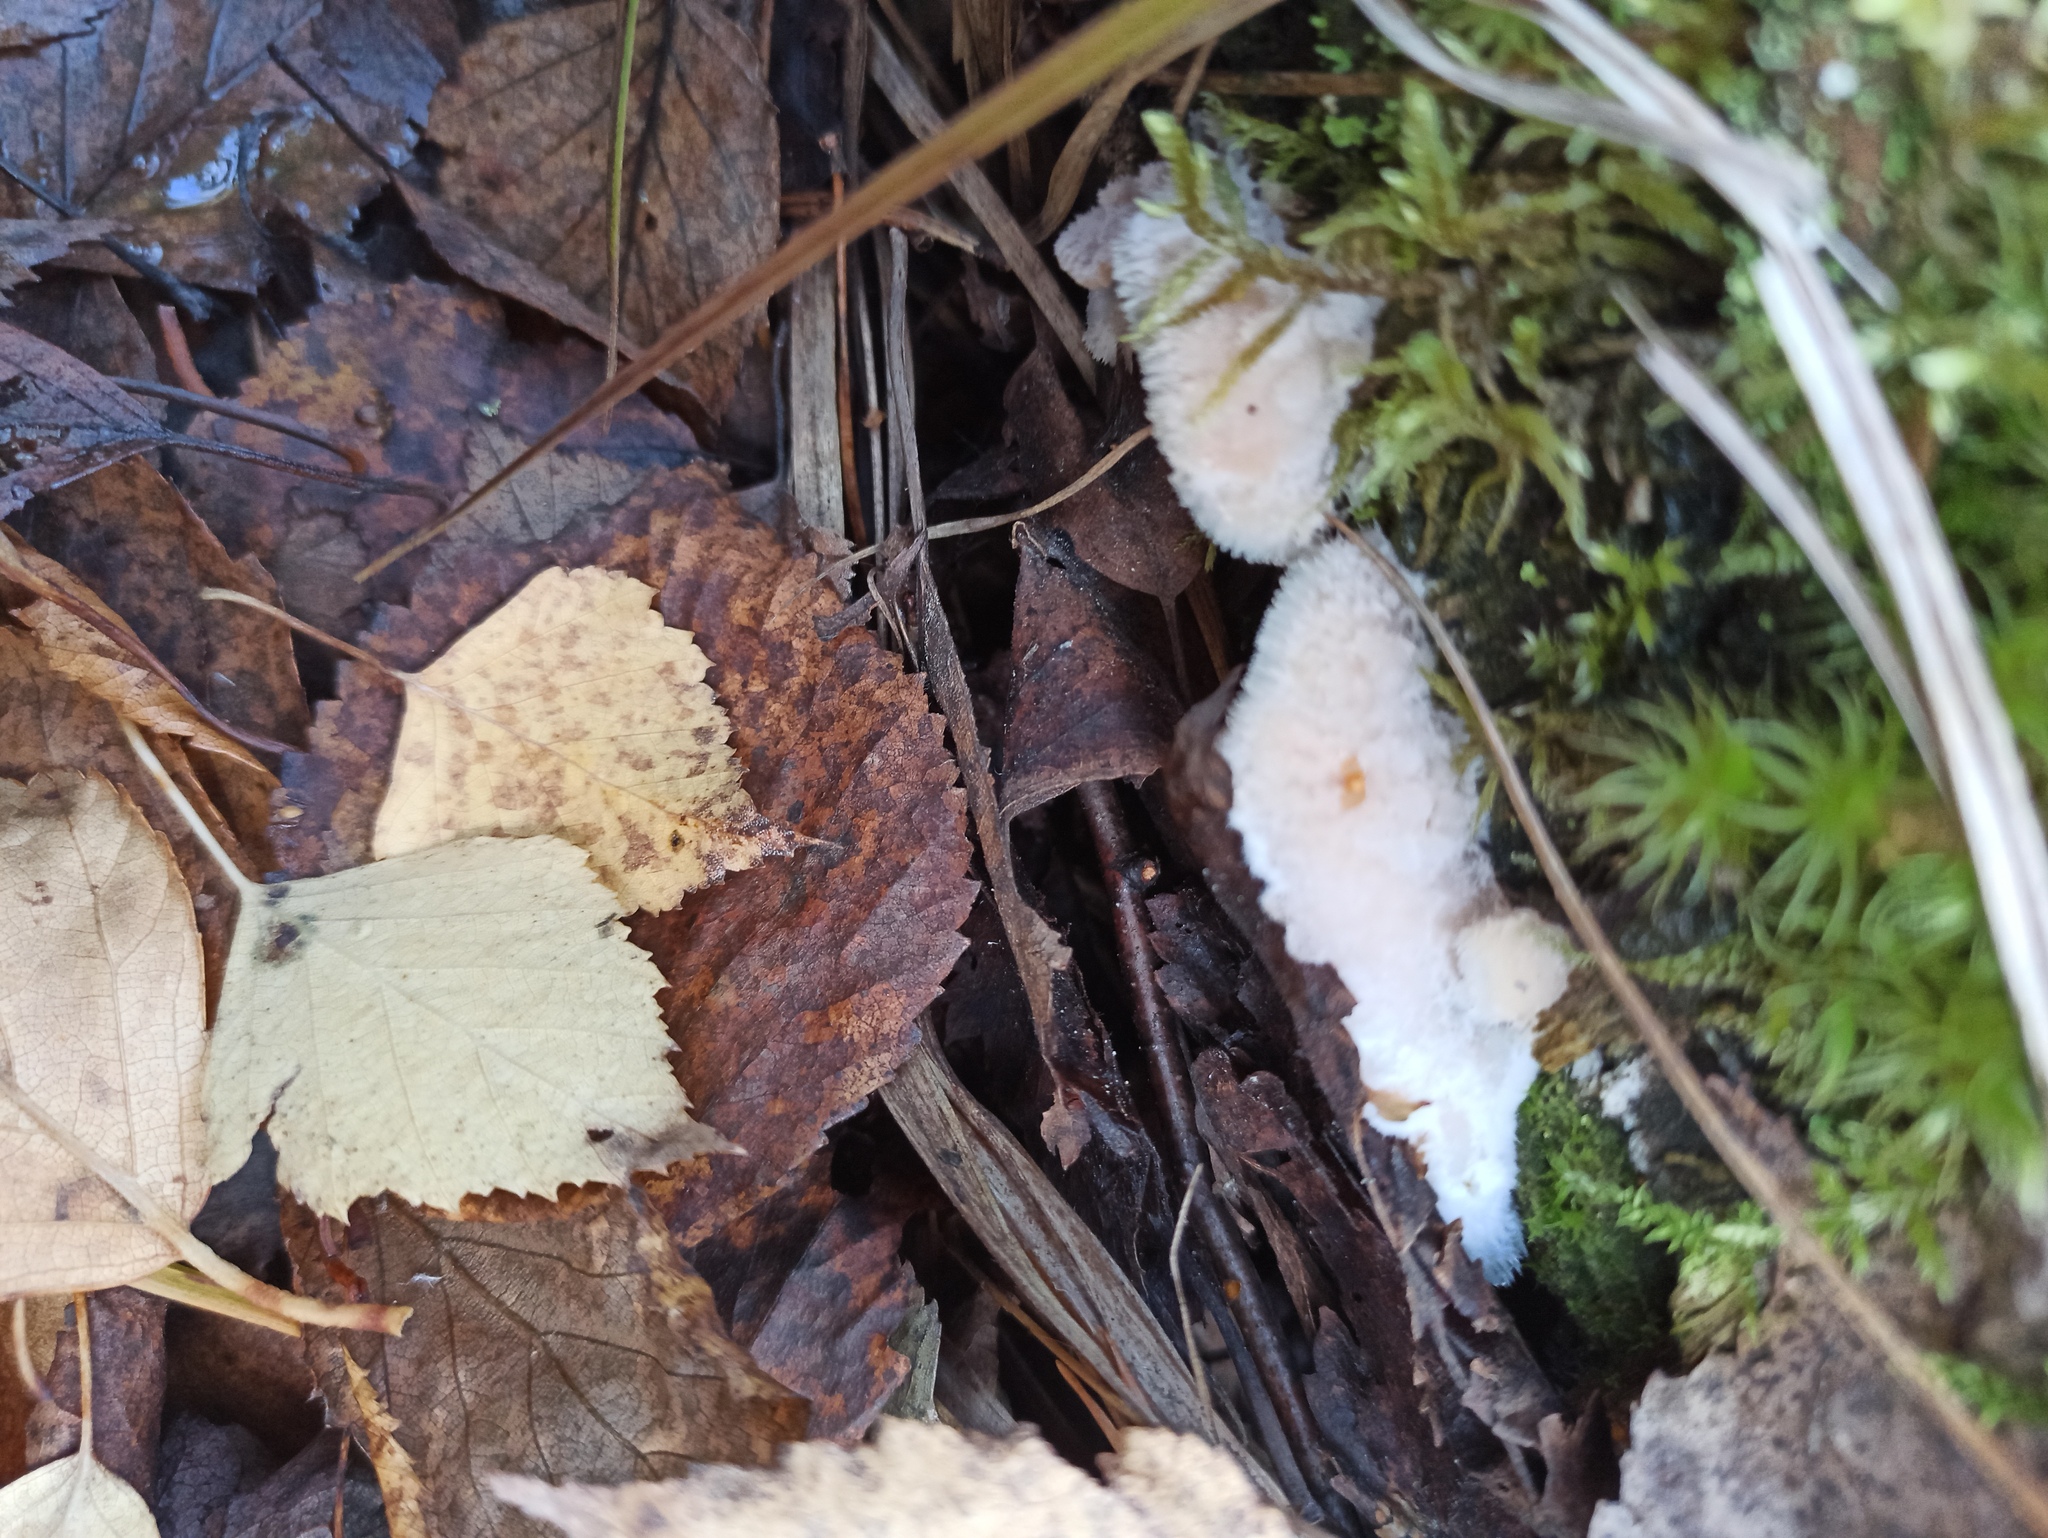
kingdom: Fungi
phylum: Basidiomycota
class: Agaricomycetes
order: Polyporales
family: Dacryobolaceae
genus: Postia
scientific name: Postia ptychogaster
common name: Powderpuff bracket
